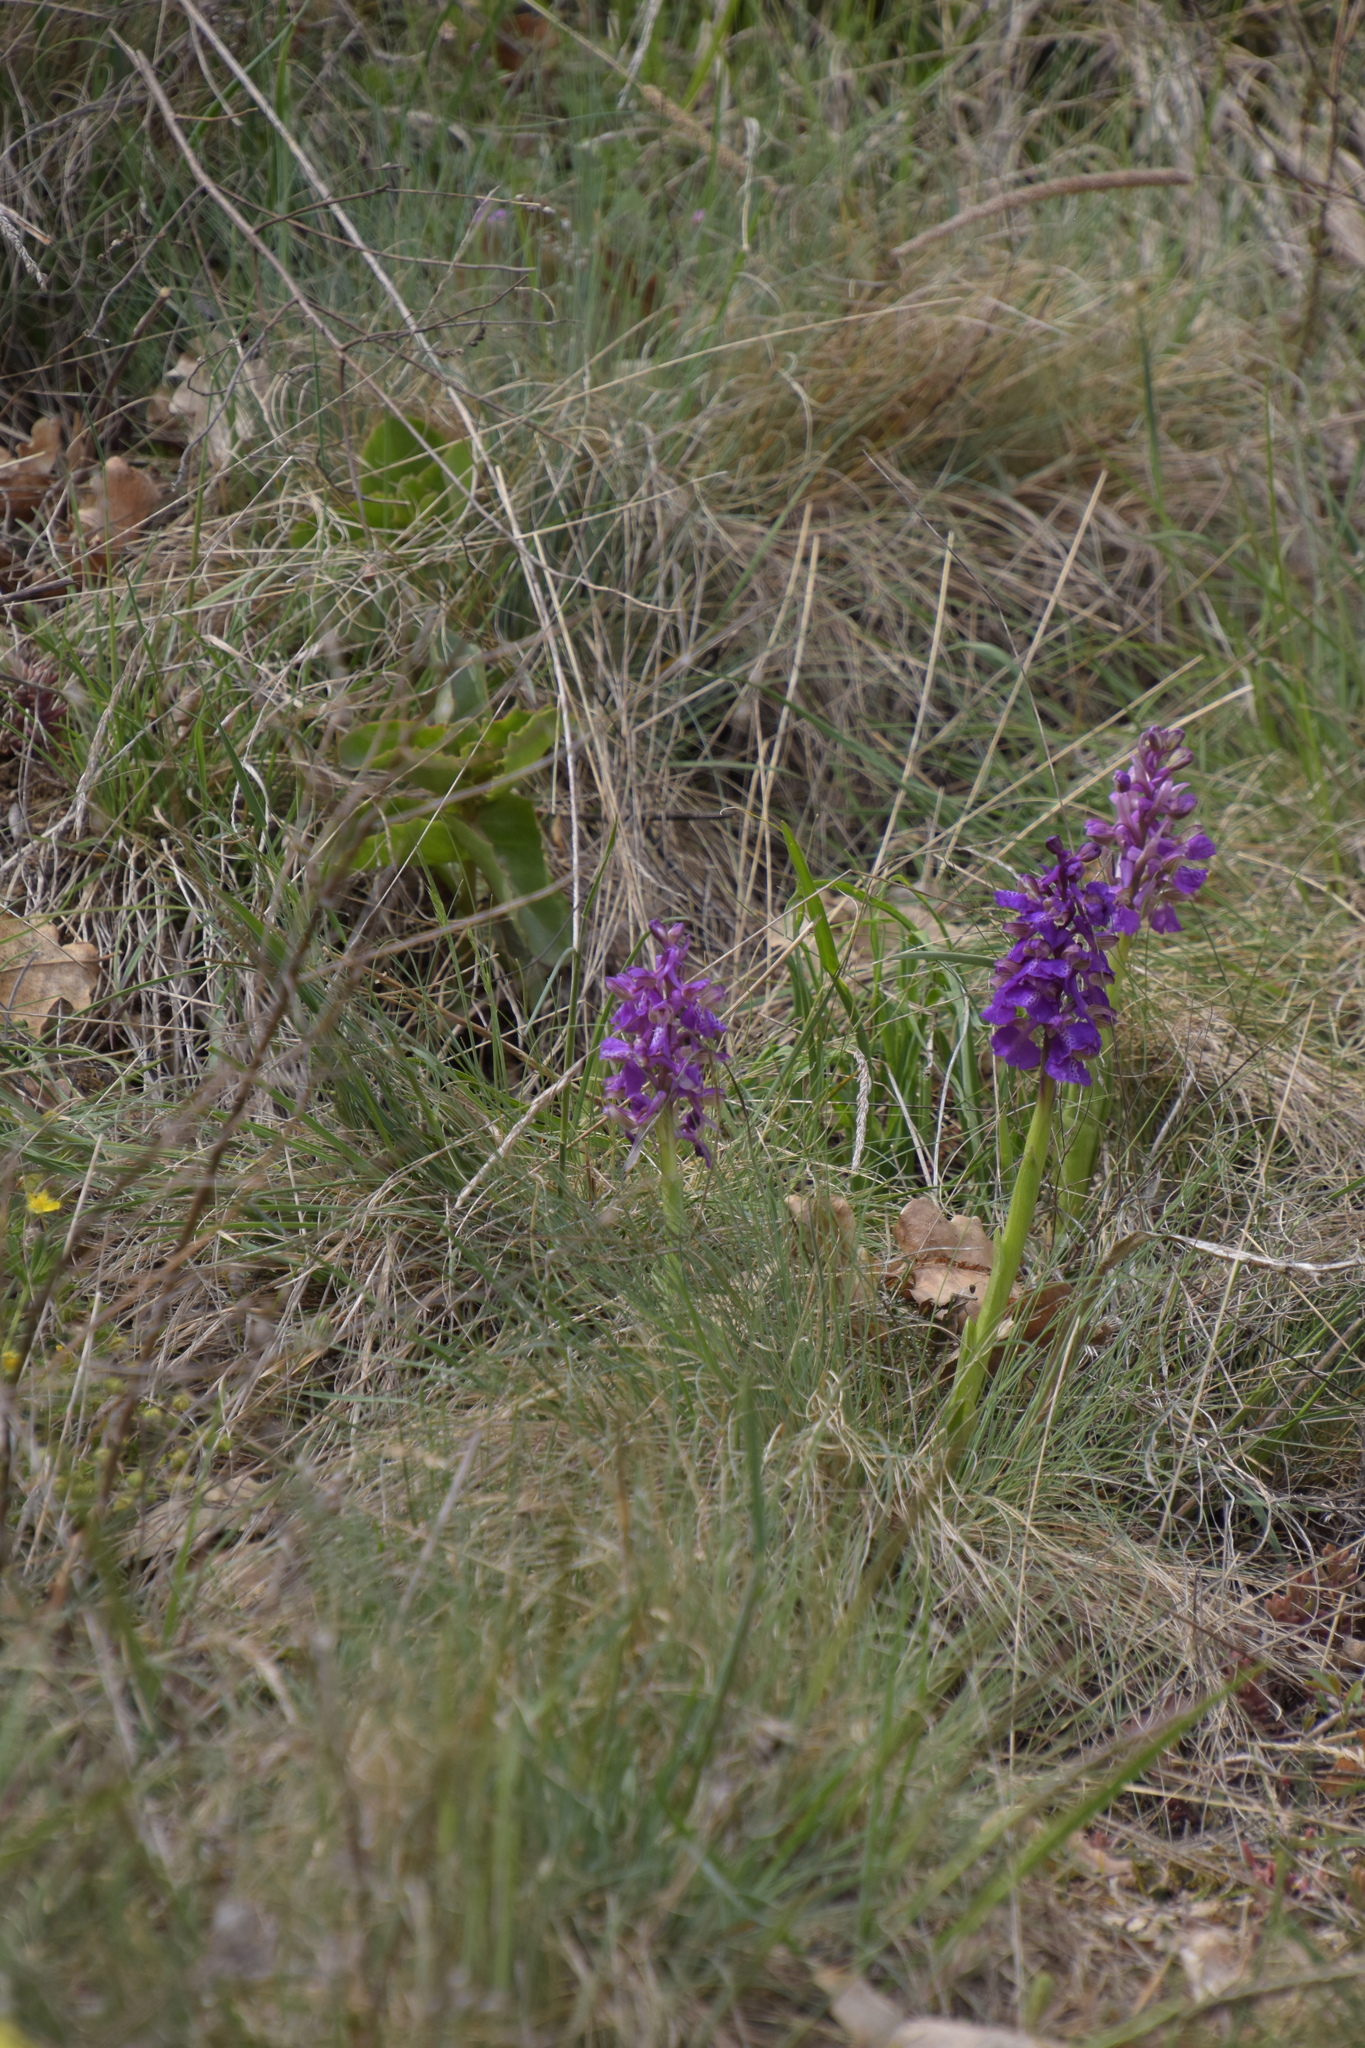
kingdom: Plantae
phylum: Tracheophyta
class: Liliopsida
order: Asparagales
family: Orchidaceae
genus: Anacamptis
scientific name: Anacamptis morio
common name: Green-winged orchid
